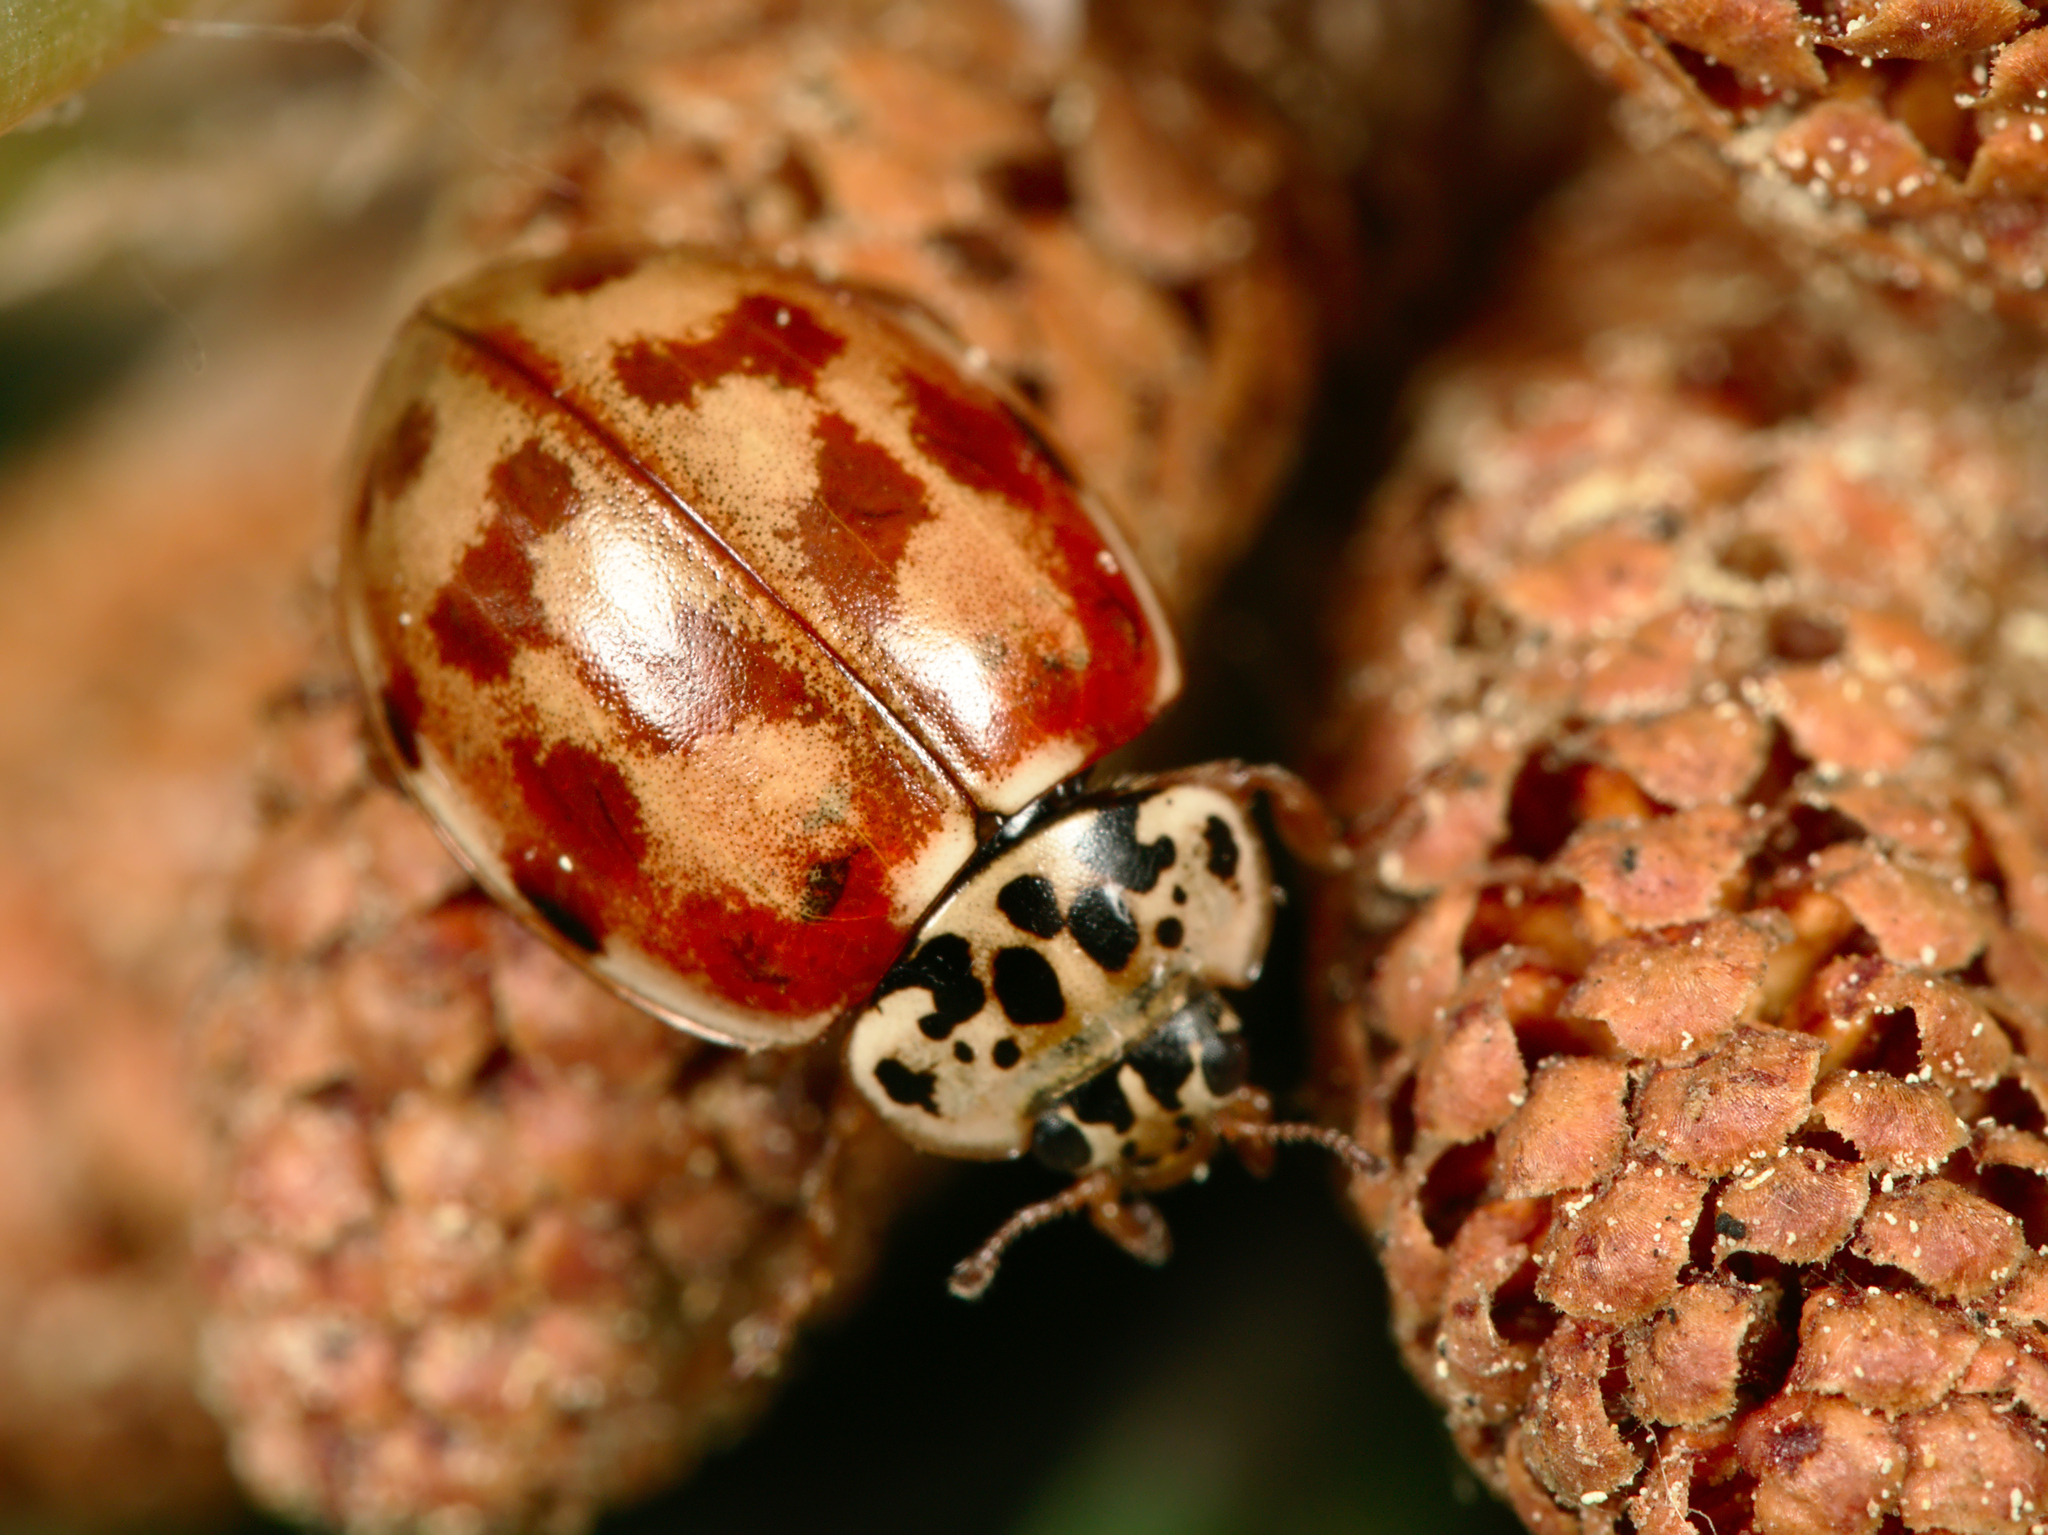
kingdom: Animalia
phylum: Arthropoda
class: Insecta
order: Coleoptera
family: Coccinellidae
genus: Harmonia
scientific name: Harmonia quadripunctata
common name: Cream-streaked ladybird
